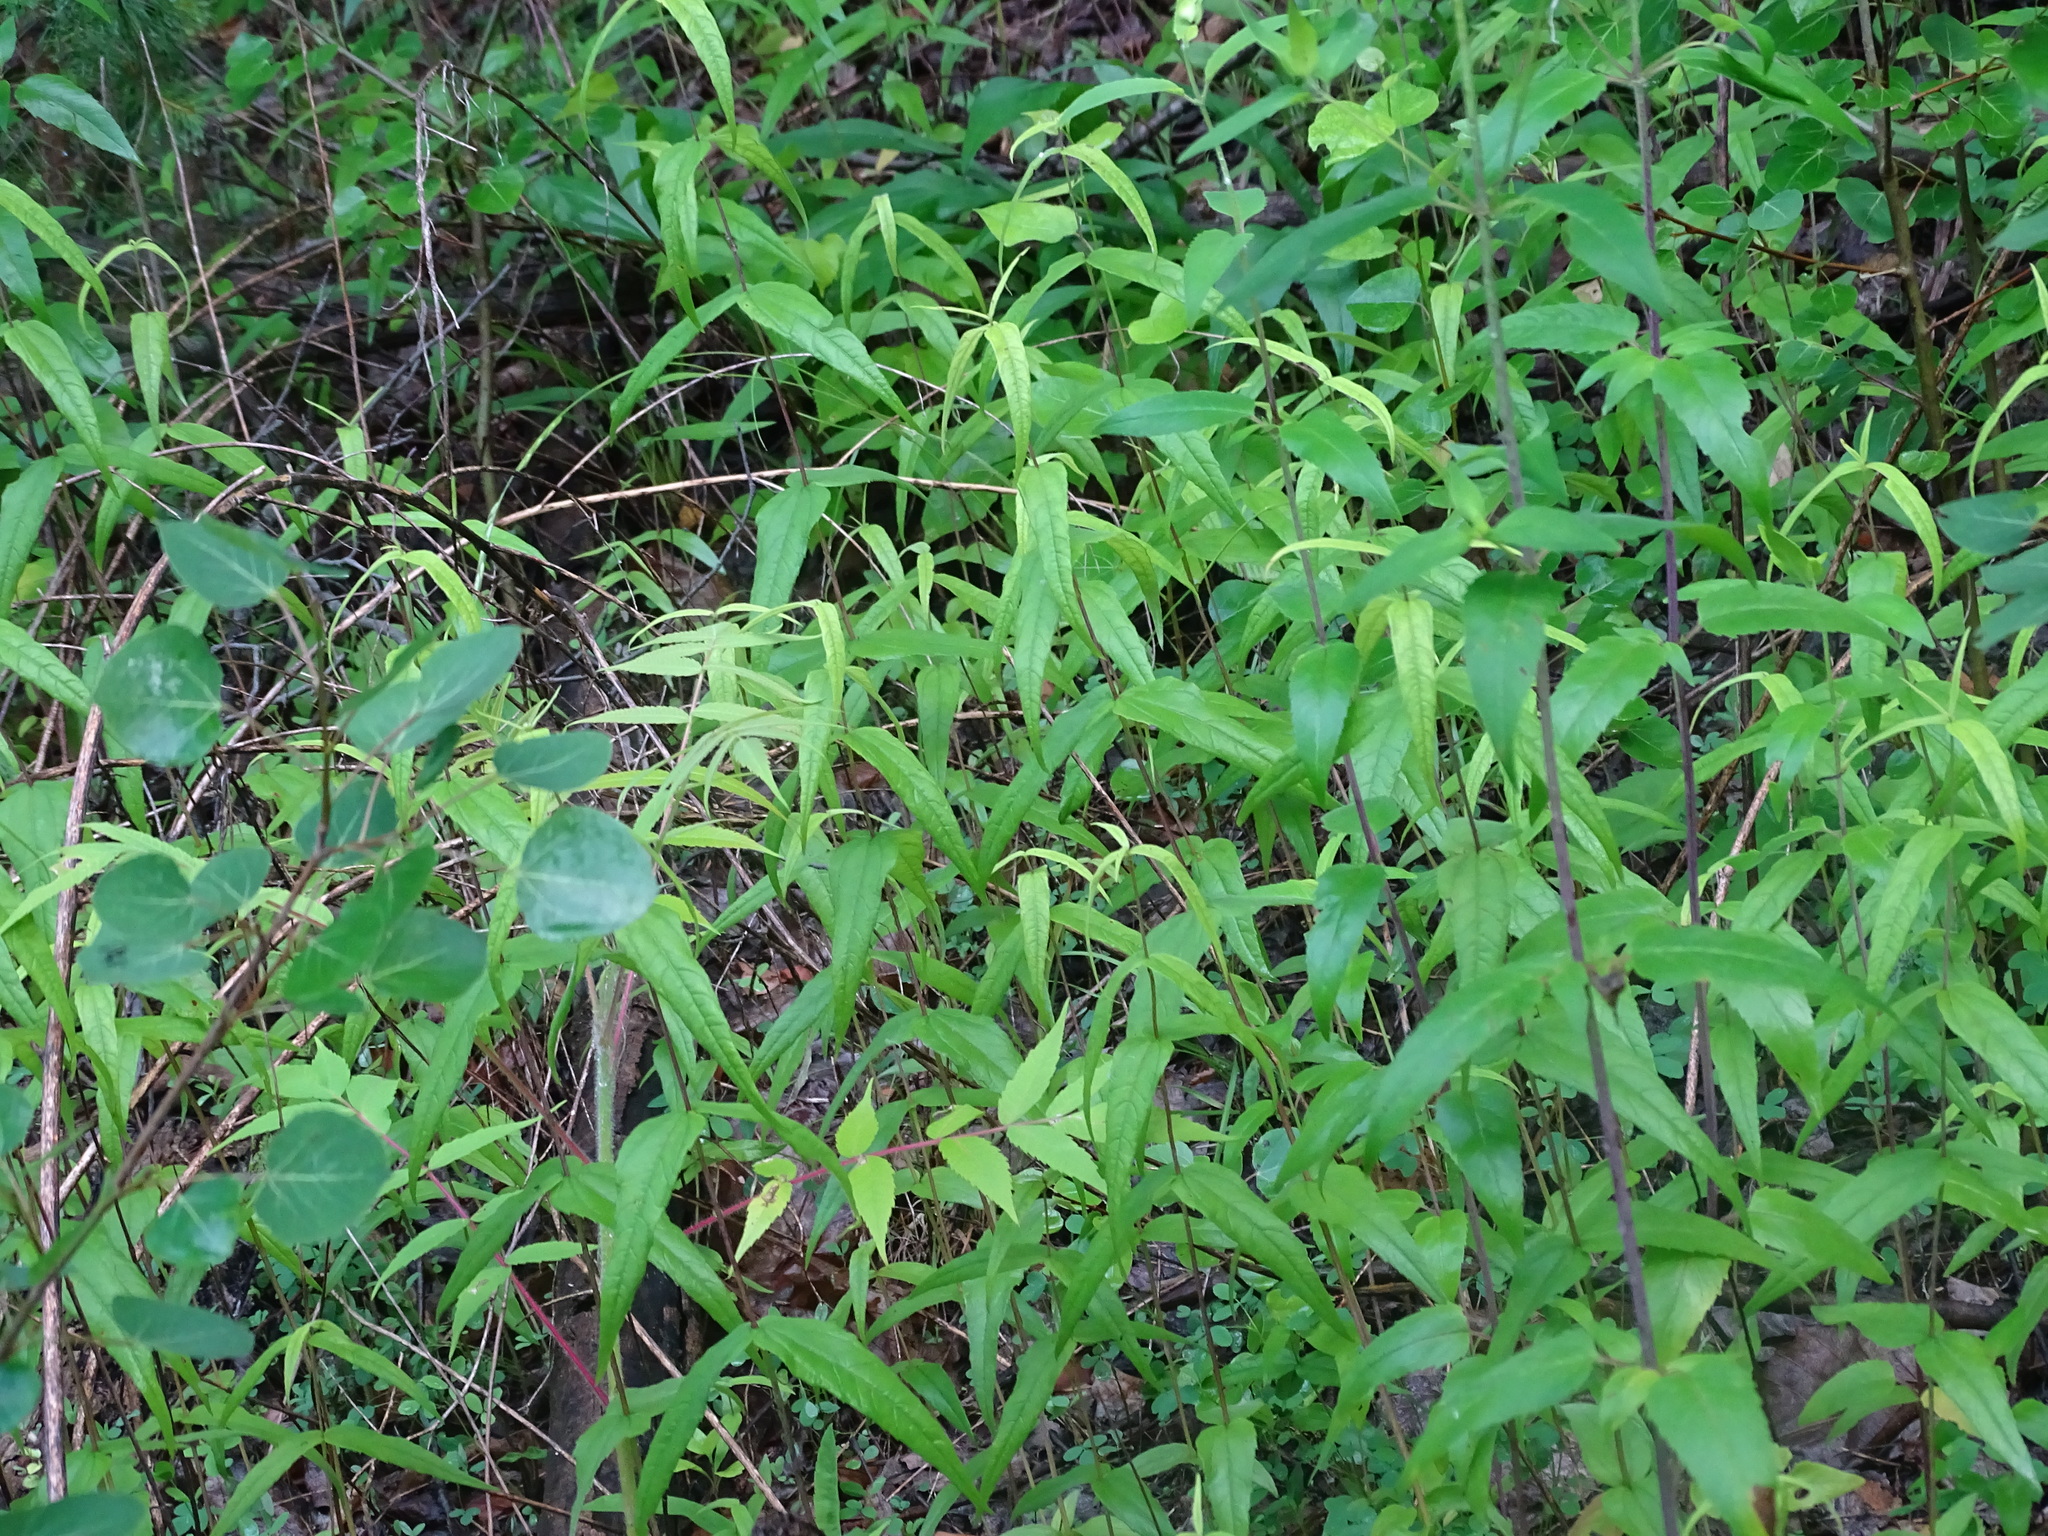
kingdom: Plantae
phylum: Tracheophyta
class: Magnoliopsida
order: Asterales
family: Asteraceae
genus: Helianthus
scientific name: Helianthus divaricatus
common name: Divergent sunflower
